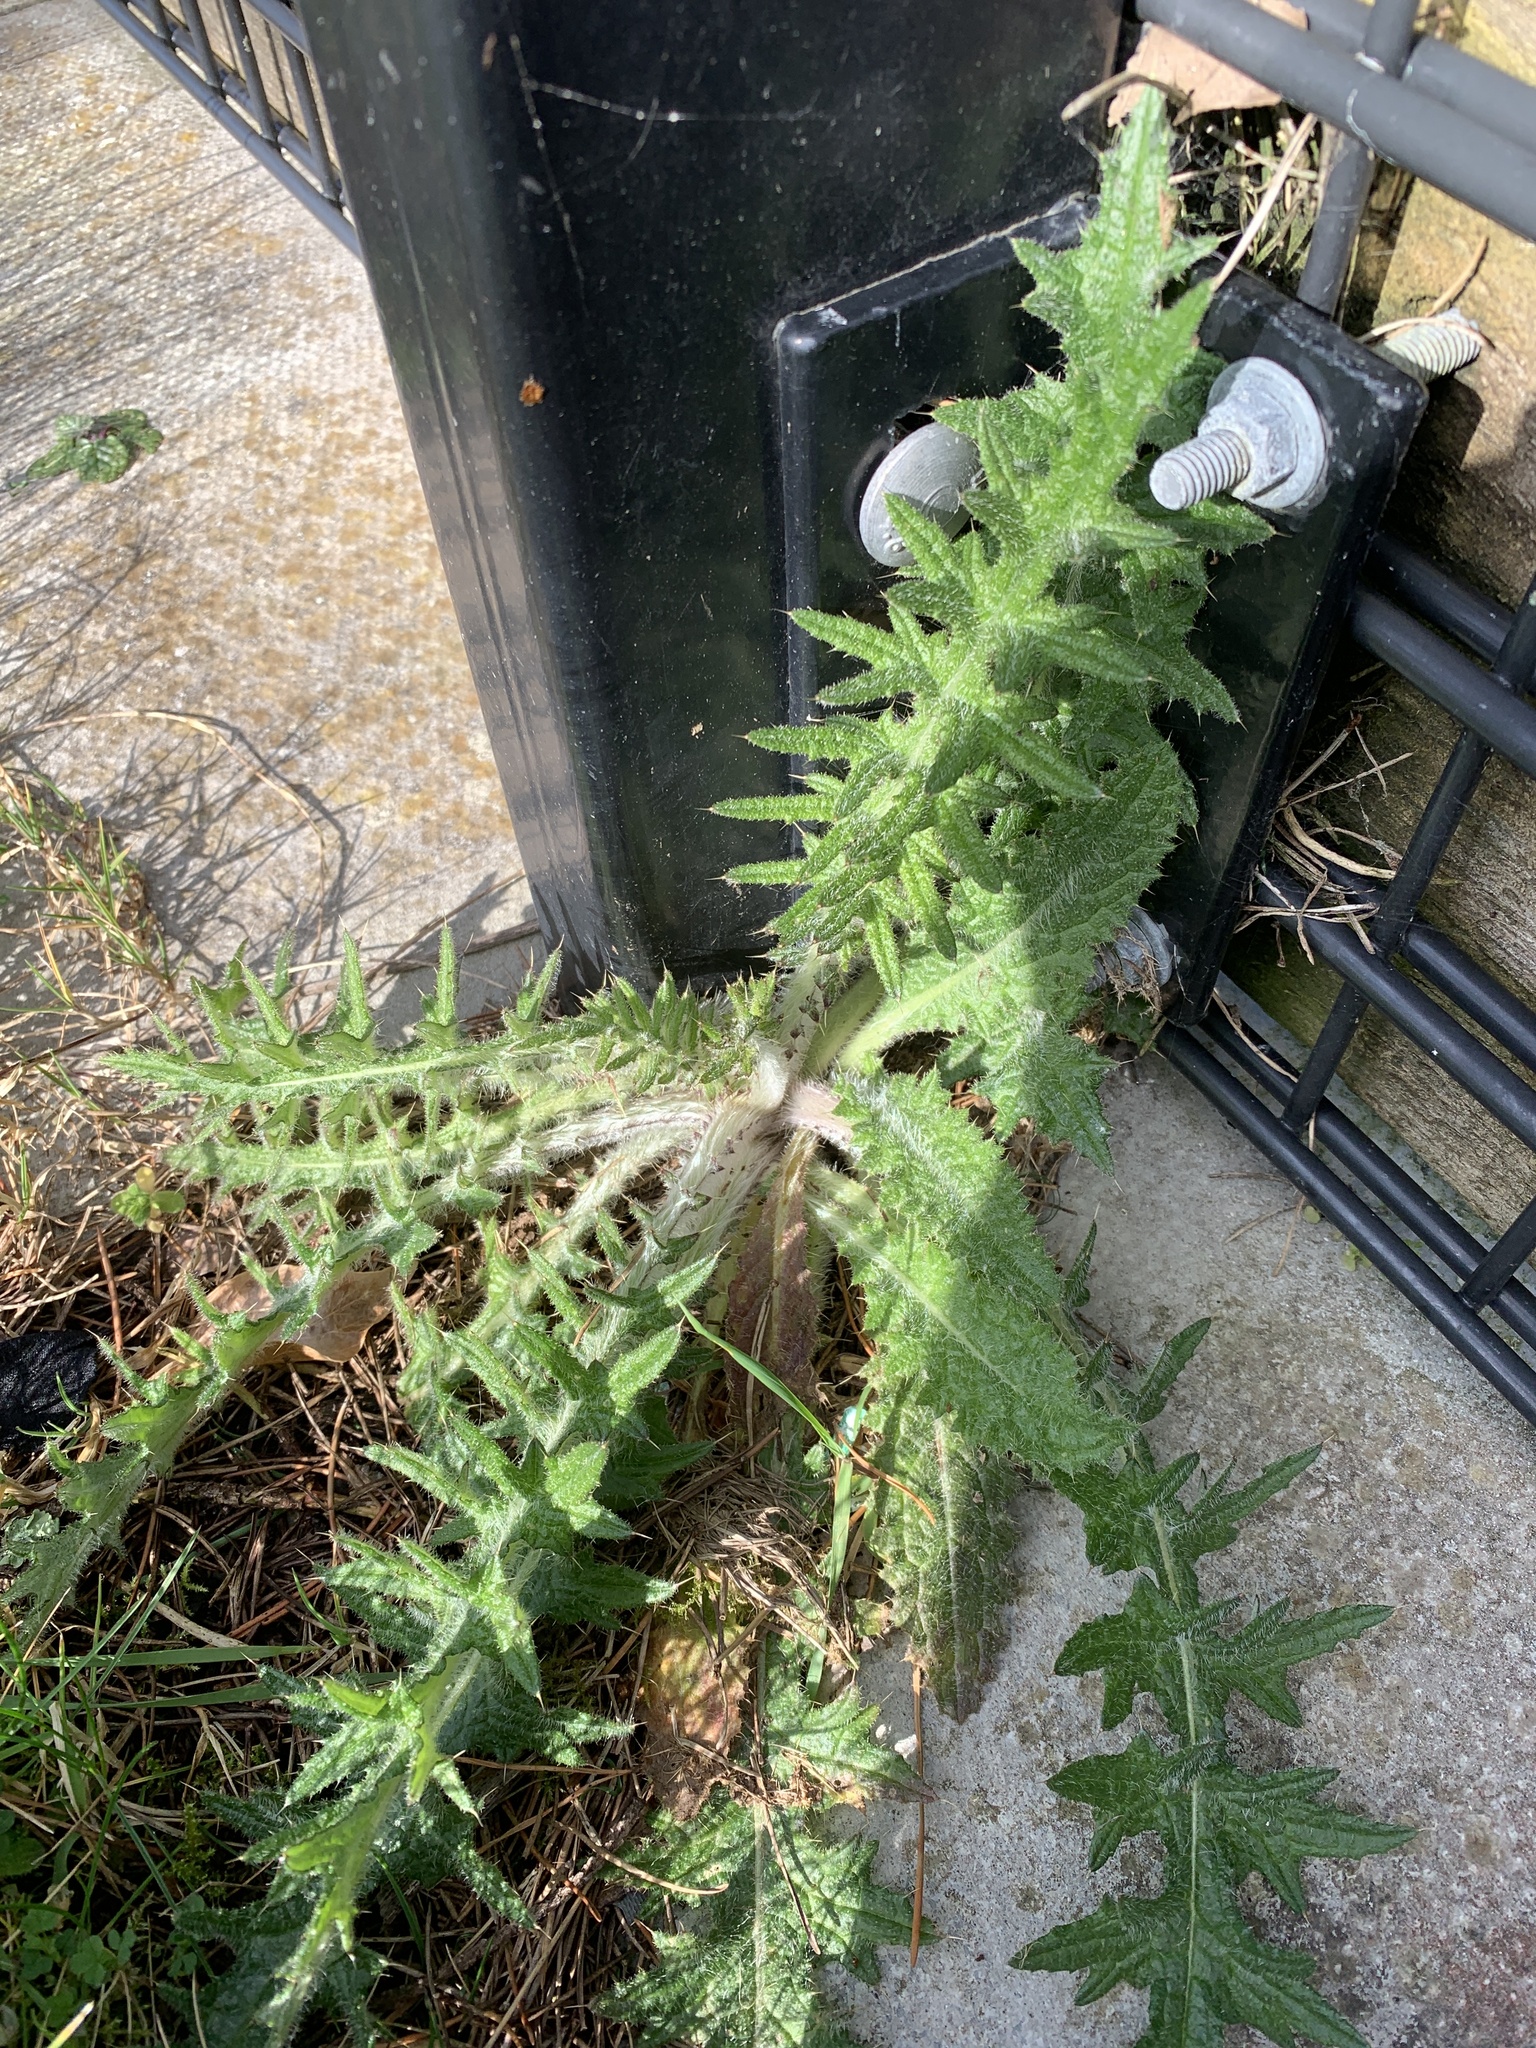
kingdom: Plantae
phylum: Tracheophyta
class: Magnoliopsida
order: Asterales
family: Asteraceae
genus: Cirsium
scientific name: Cirsium vulgare
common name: Bull thistle
